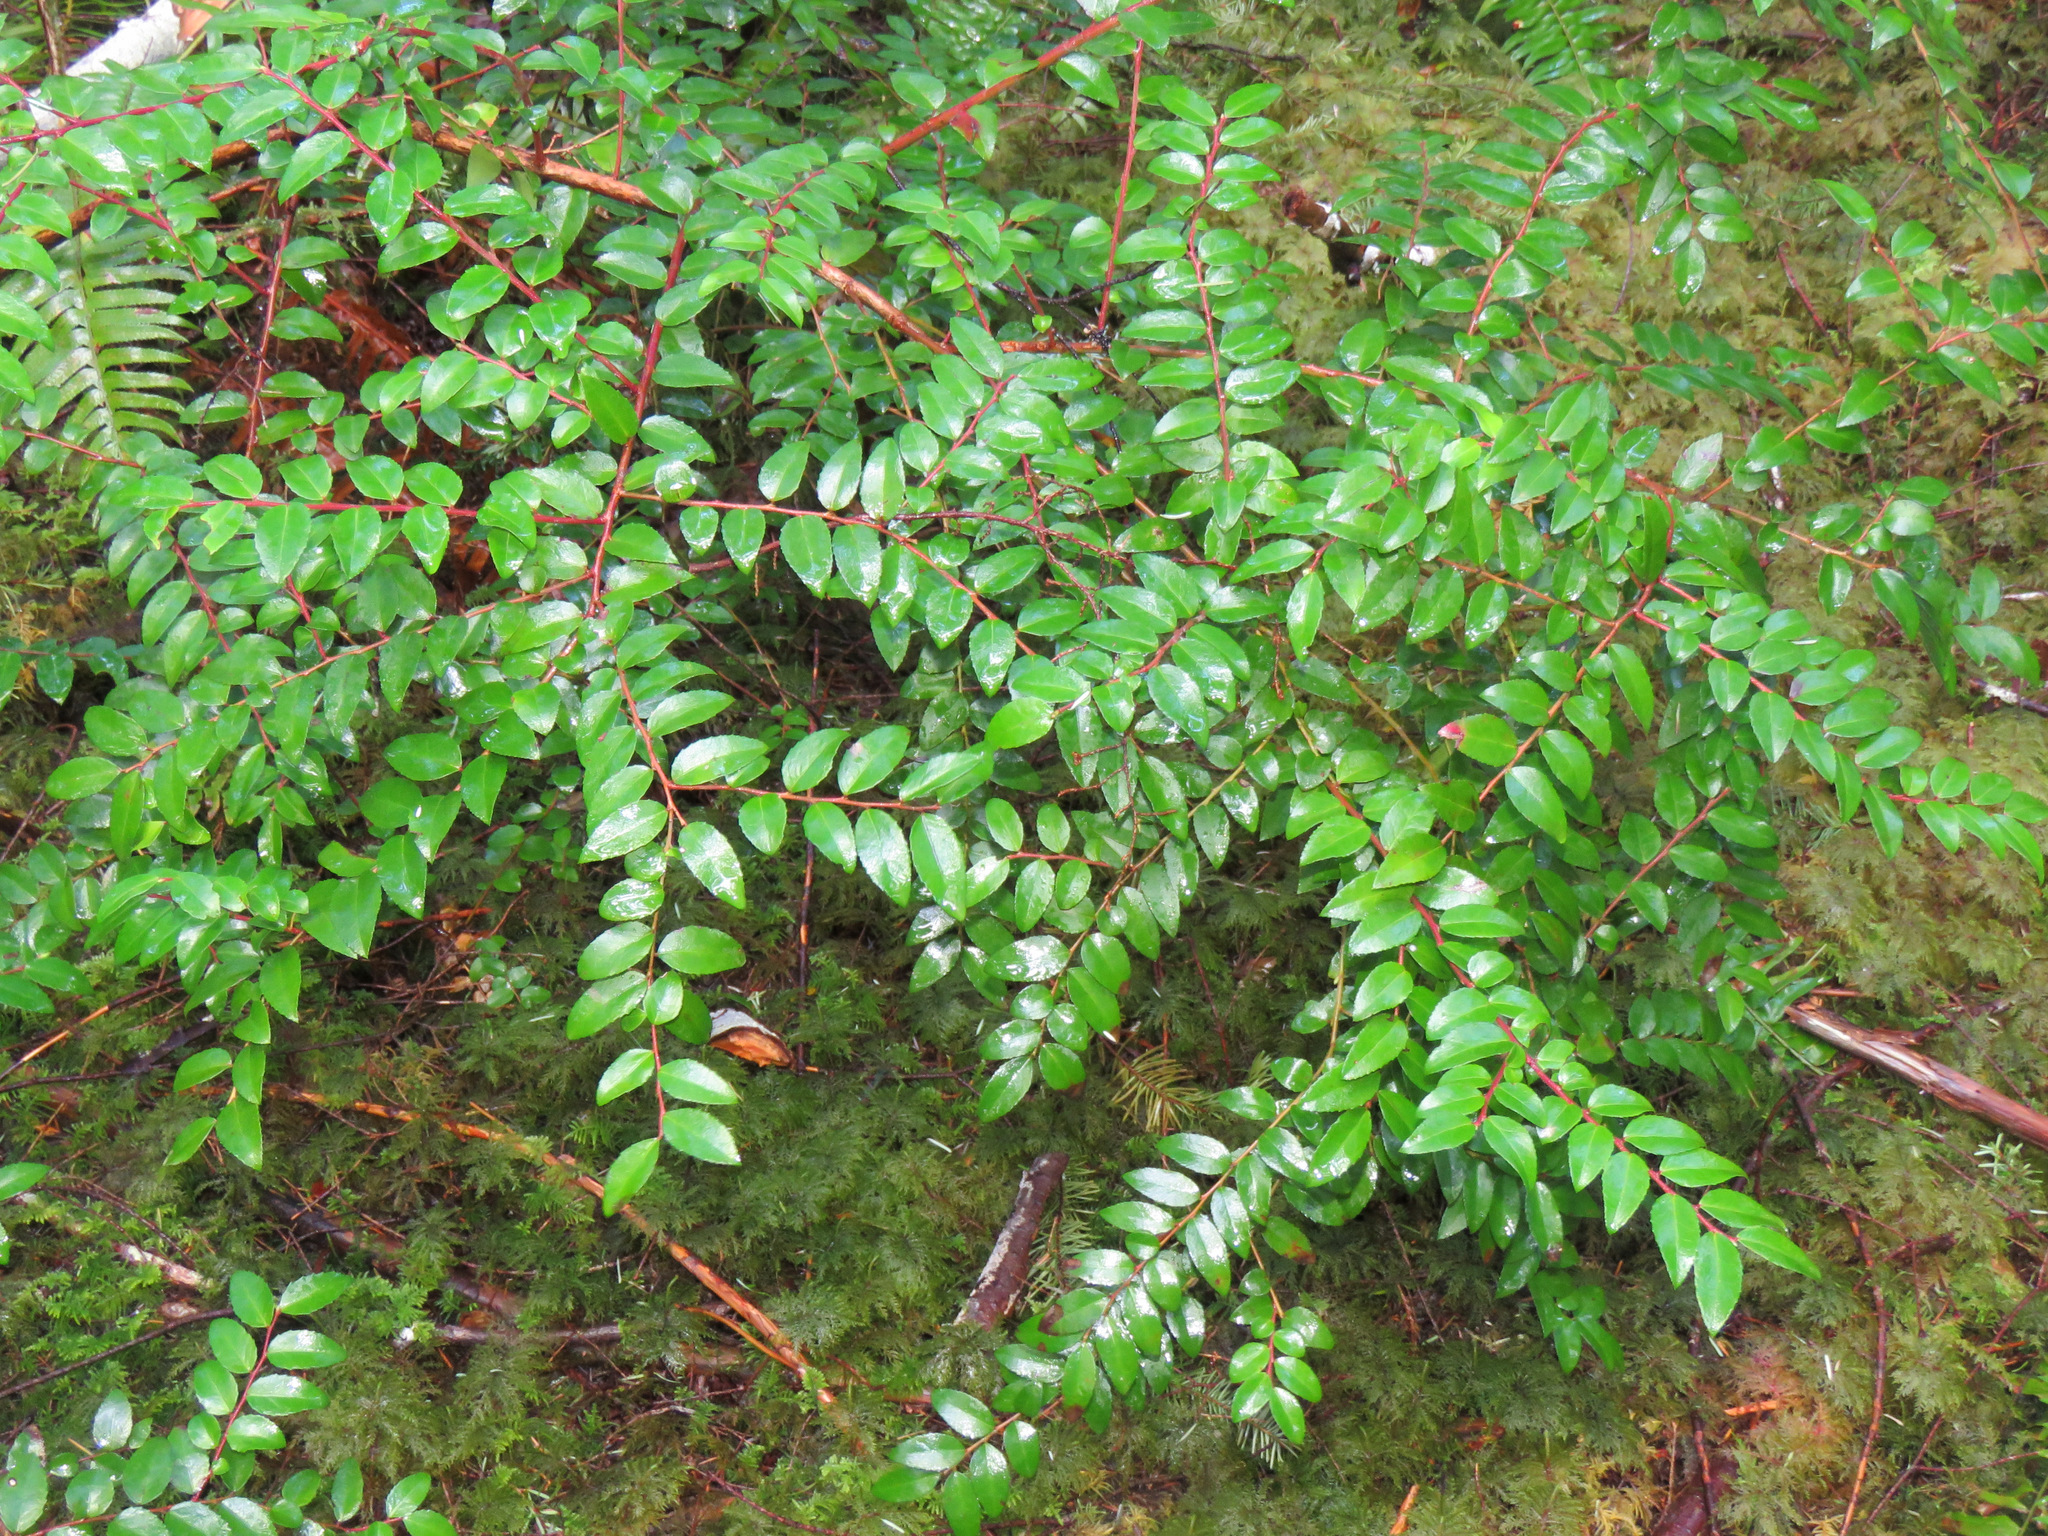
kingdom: Plantae
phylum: Tracheophyta
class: Magnoliopsida
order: Ericales
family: Ericaceae
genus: Vaccinium
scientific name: Vaccinium ovatum
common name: California-huckleberry
